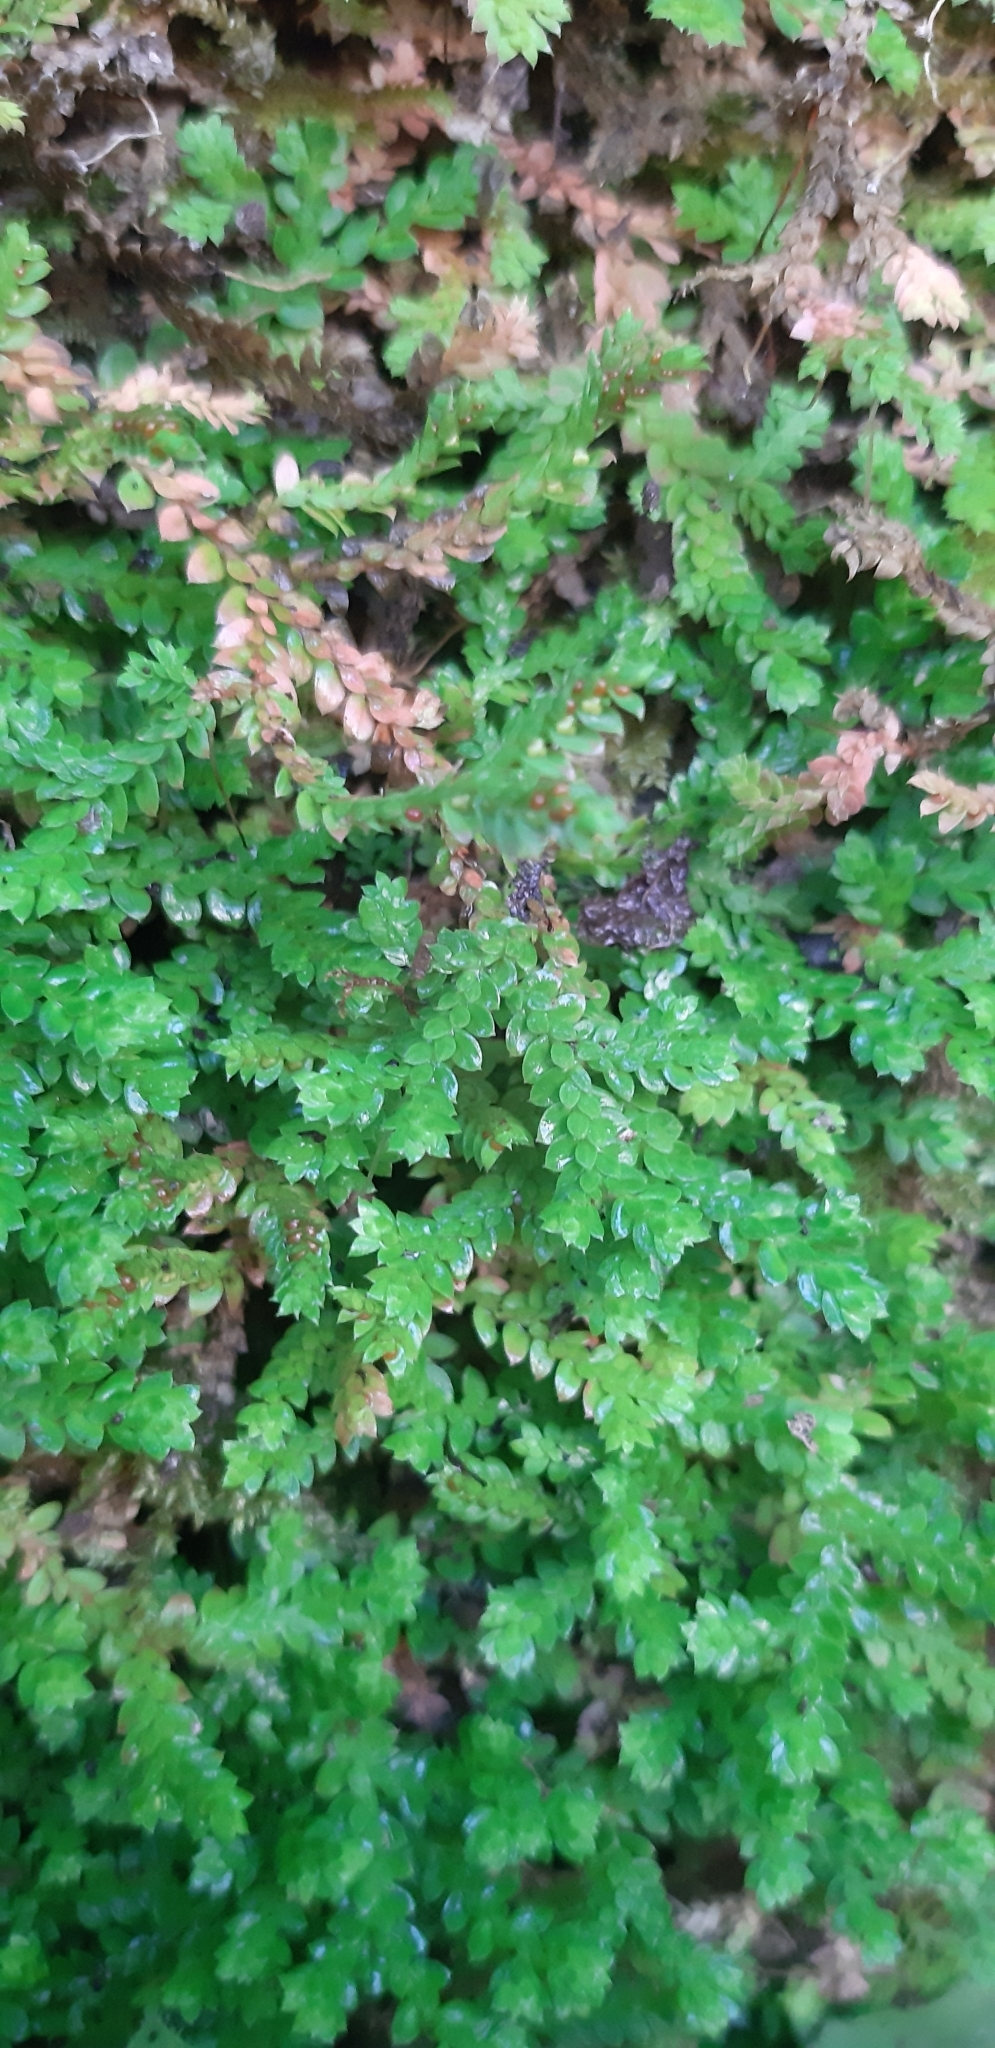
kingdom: Plantae
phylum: Tracheophyta
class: Lycopodiopsida
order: Selaginellales
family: Selaginellaceae
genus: Selaginella
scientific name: Selaginella denticulata
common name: Toothed-leaved clubmoss
